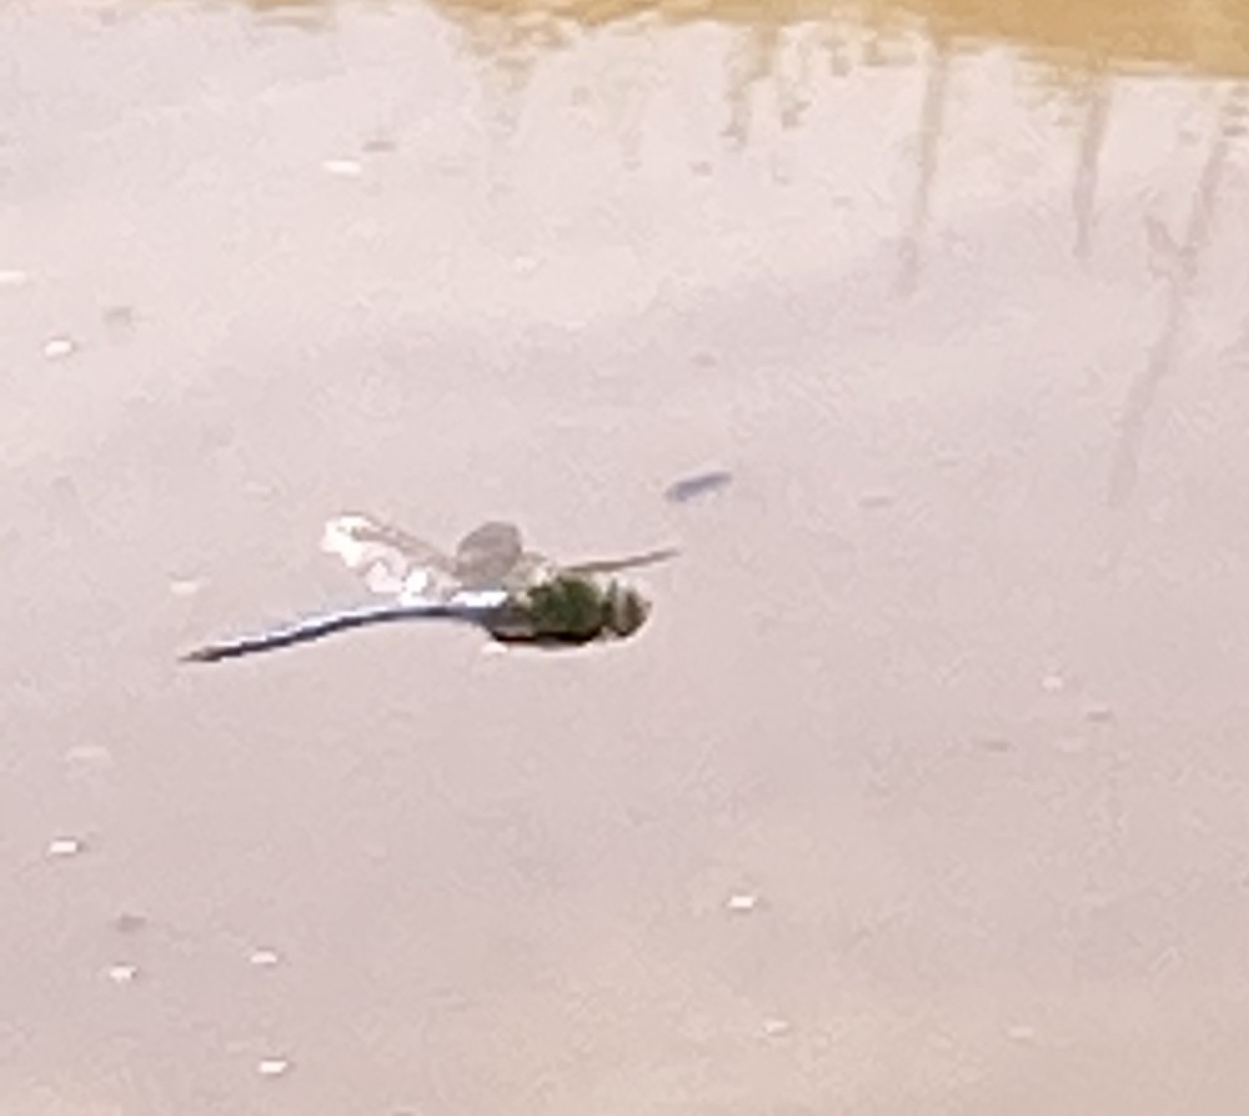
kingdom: Animalia
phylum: Arthropoda
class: Insecta
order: Odonata
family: Aeshnidae
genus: Anax
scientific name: Anax imperator
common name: Emperor dragonfly
